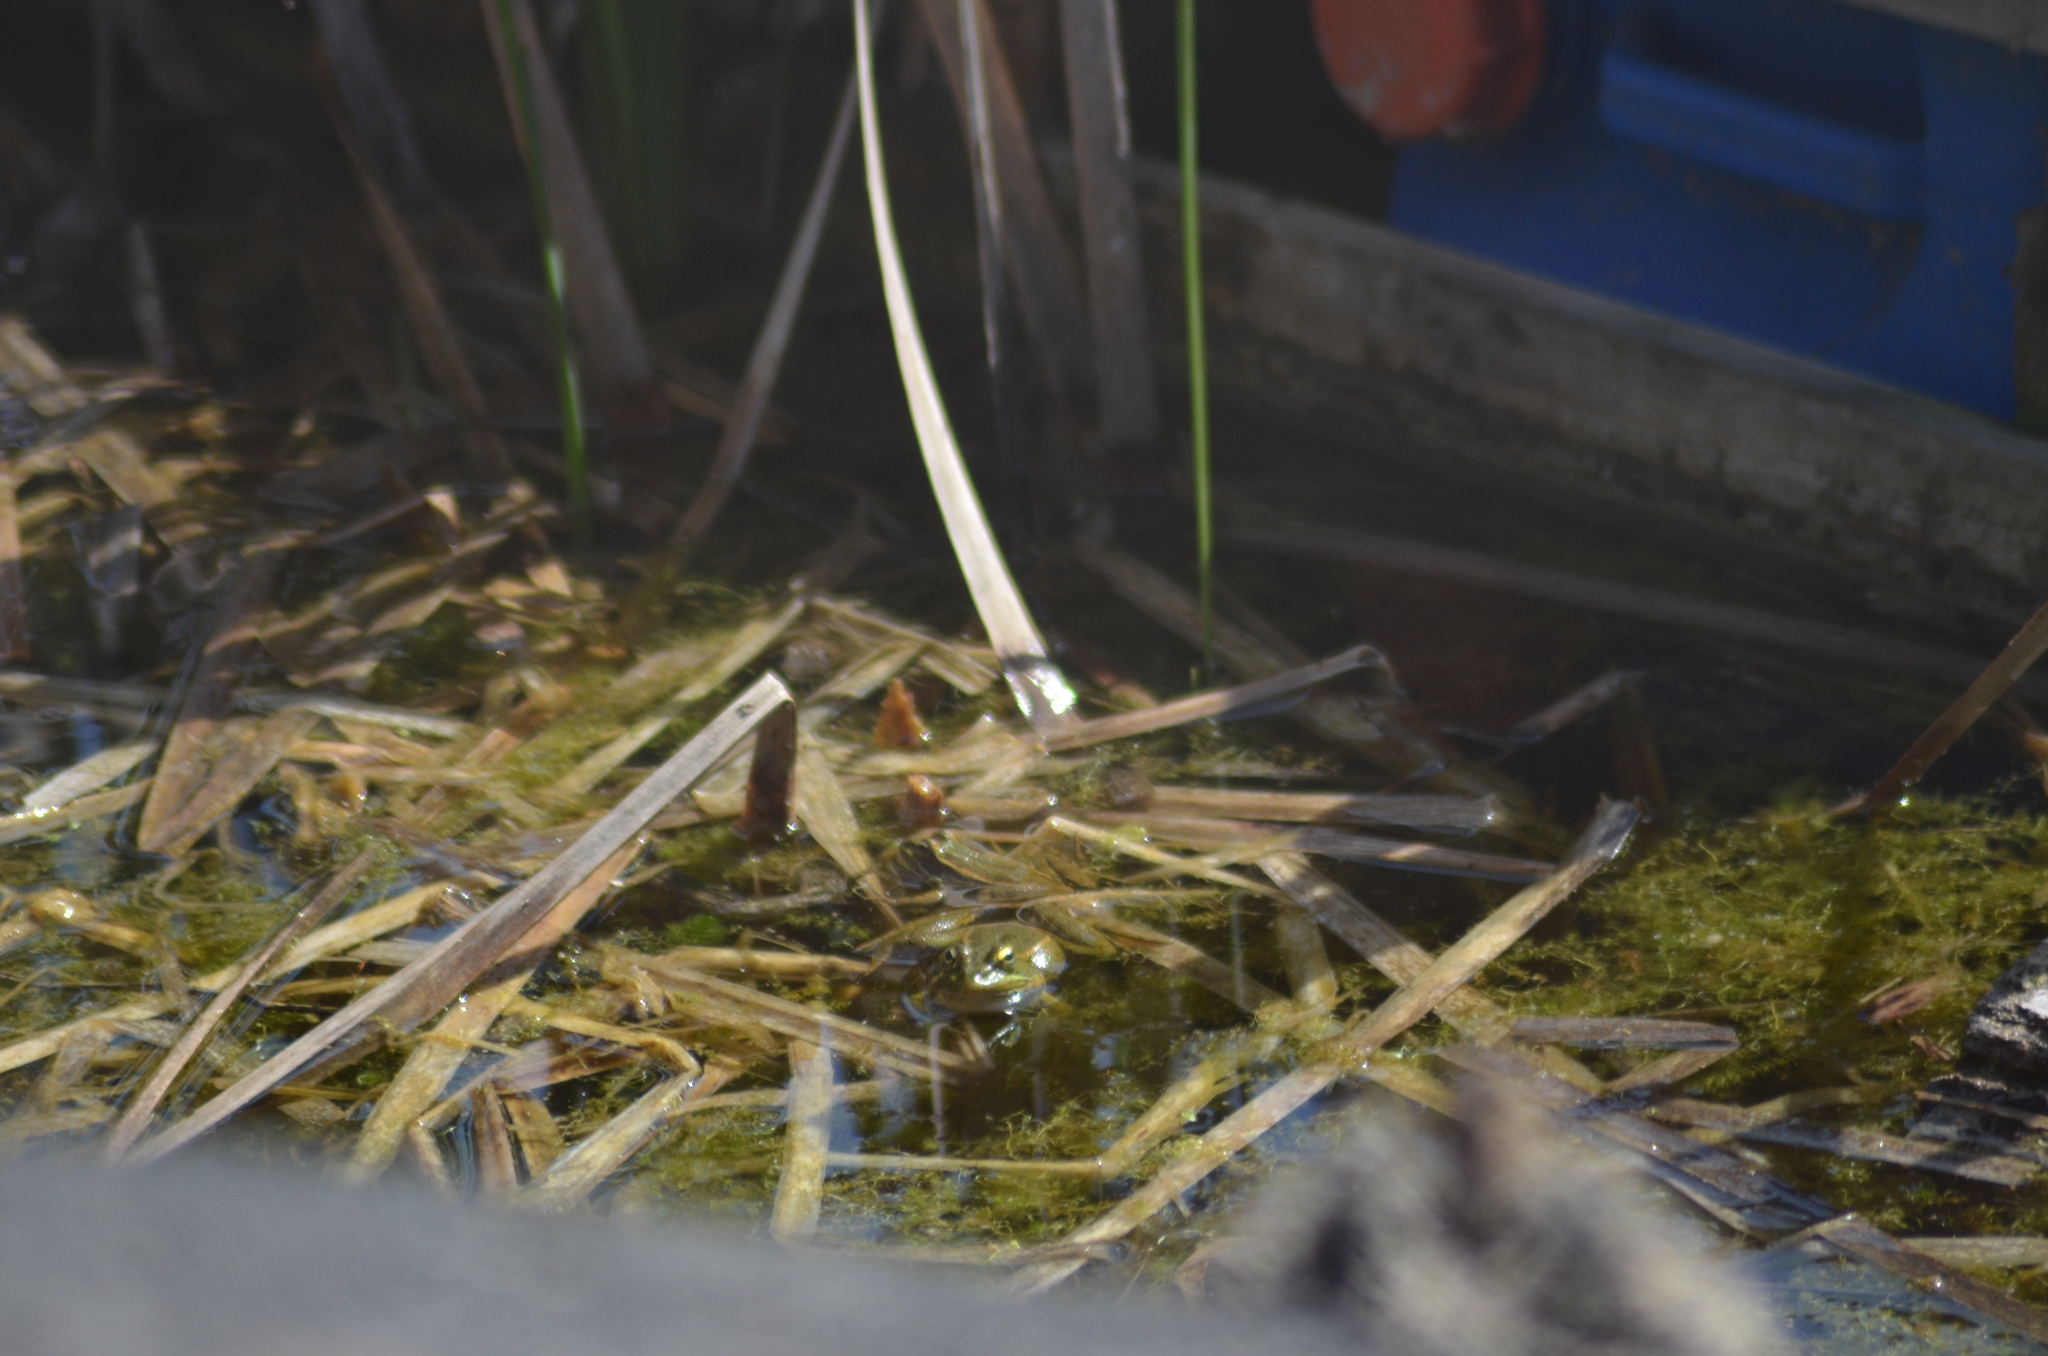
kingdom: Animalia
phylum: Chordata
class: Amphibia
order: Anura
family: Ranidae
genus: Pelophylax
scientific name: Pelophylax perezi
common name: Perez's frog
